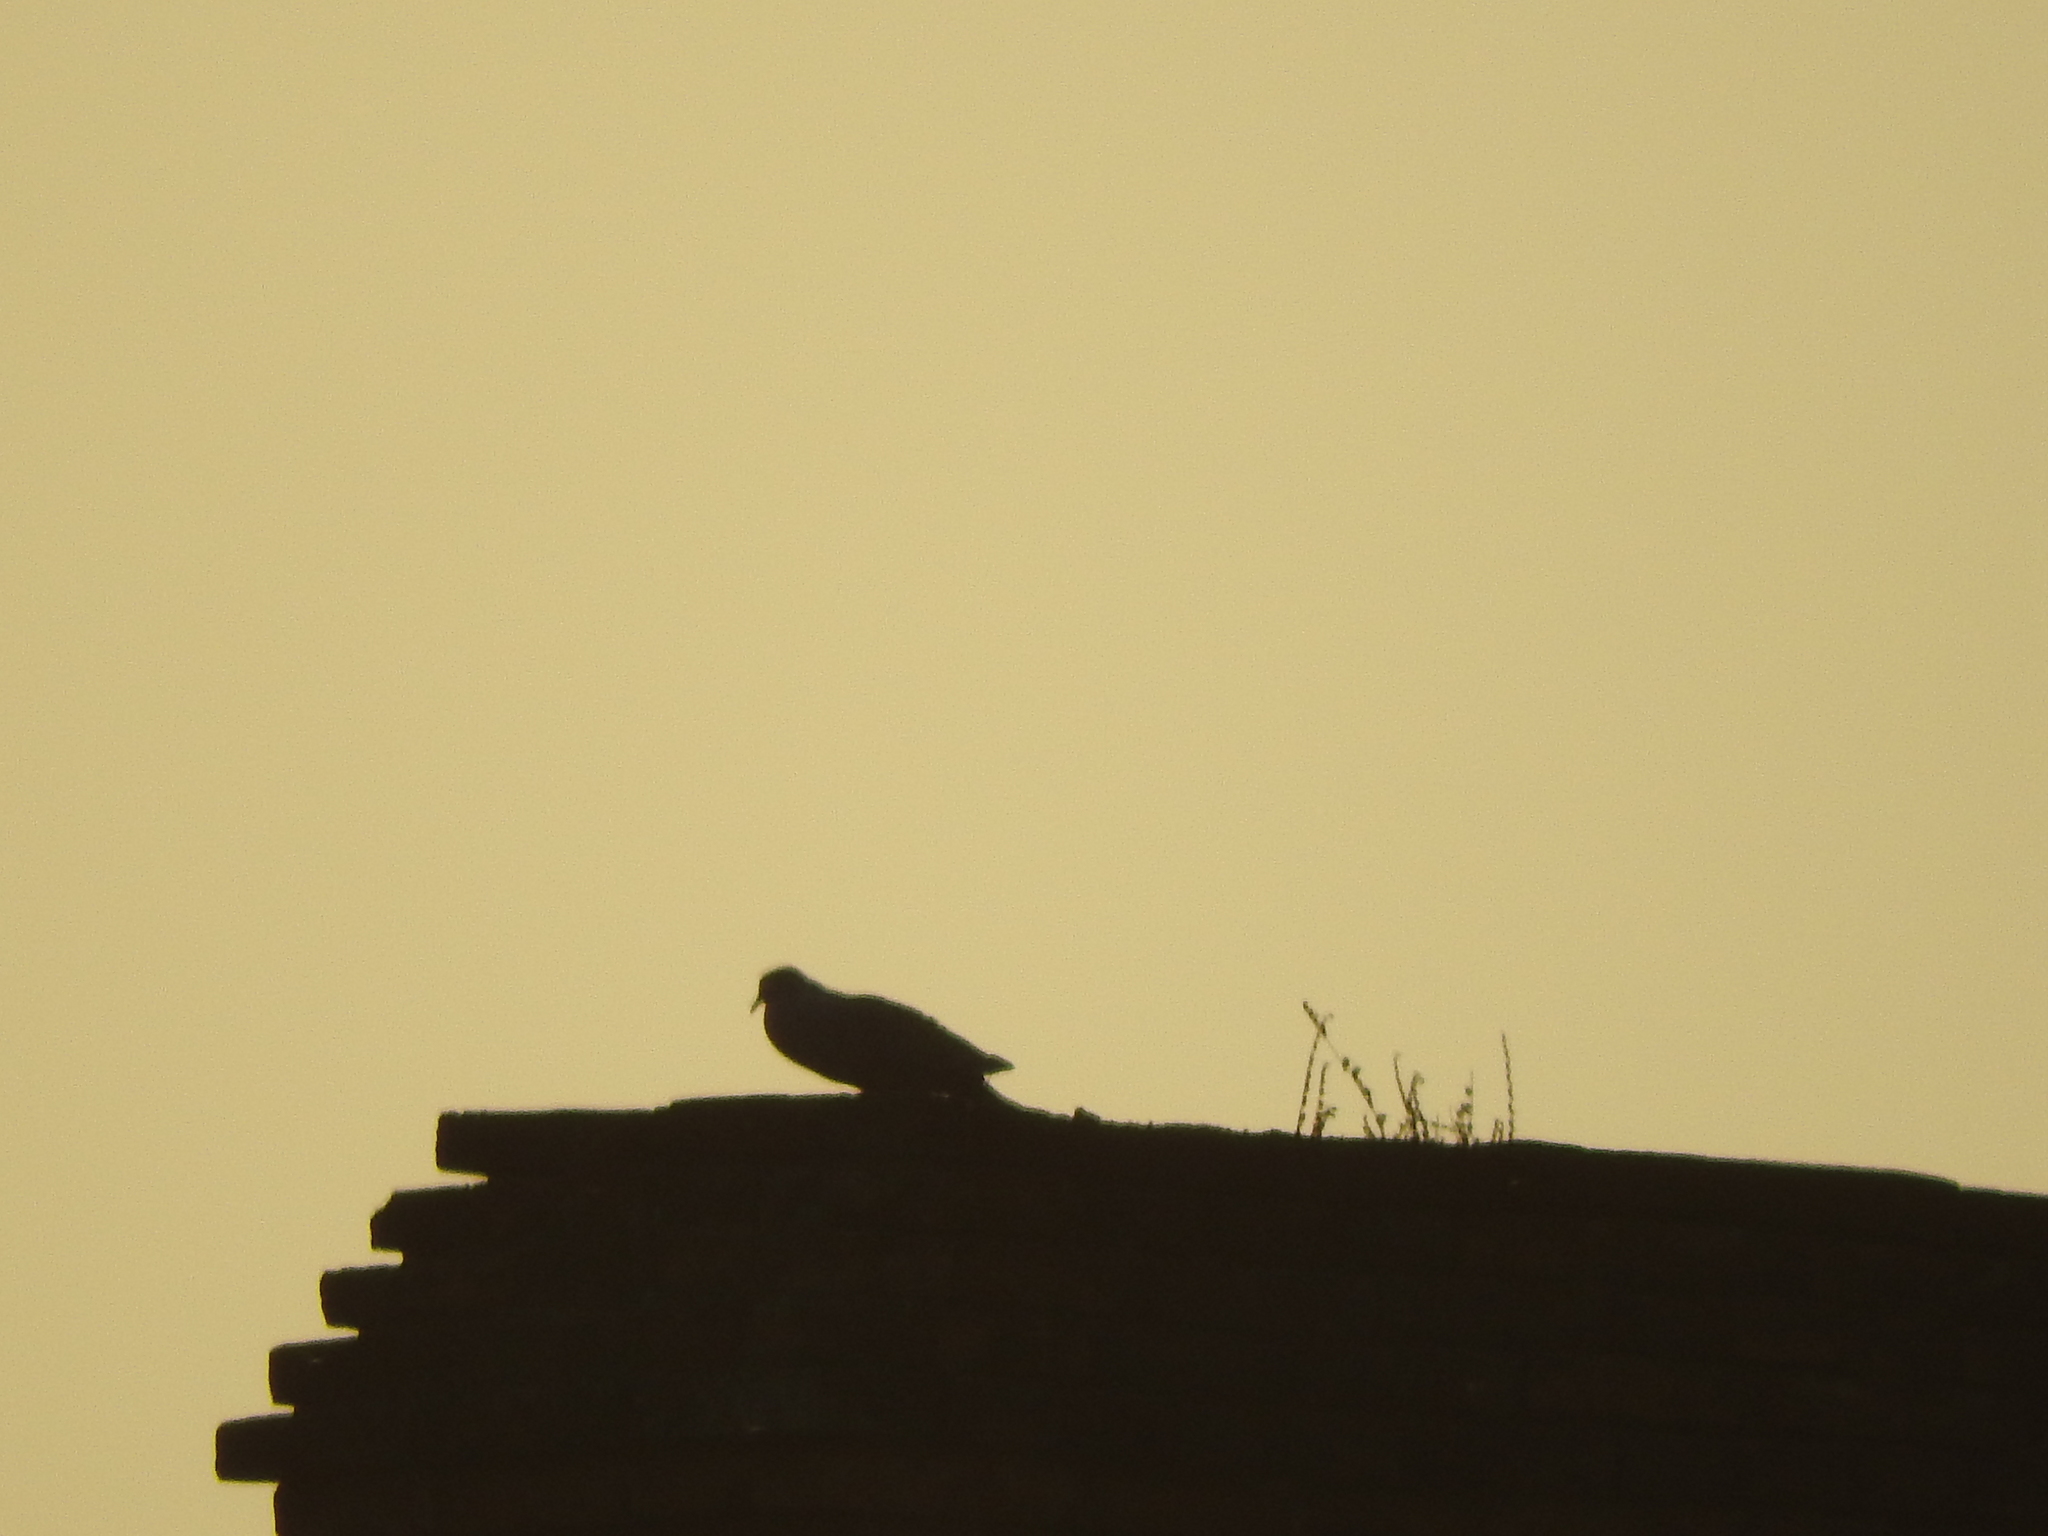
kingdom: Animalia
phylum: Chordata
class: Aves
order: Columbiformes
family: Columbidae
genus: Streptopelia
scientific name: Streptopelia decaocto
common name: Eurasian collared dove
